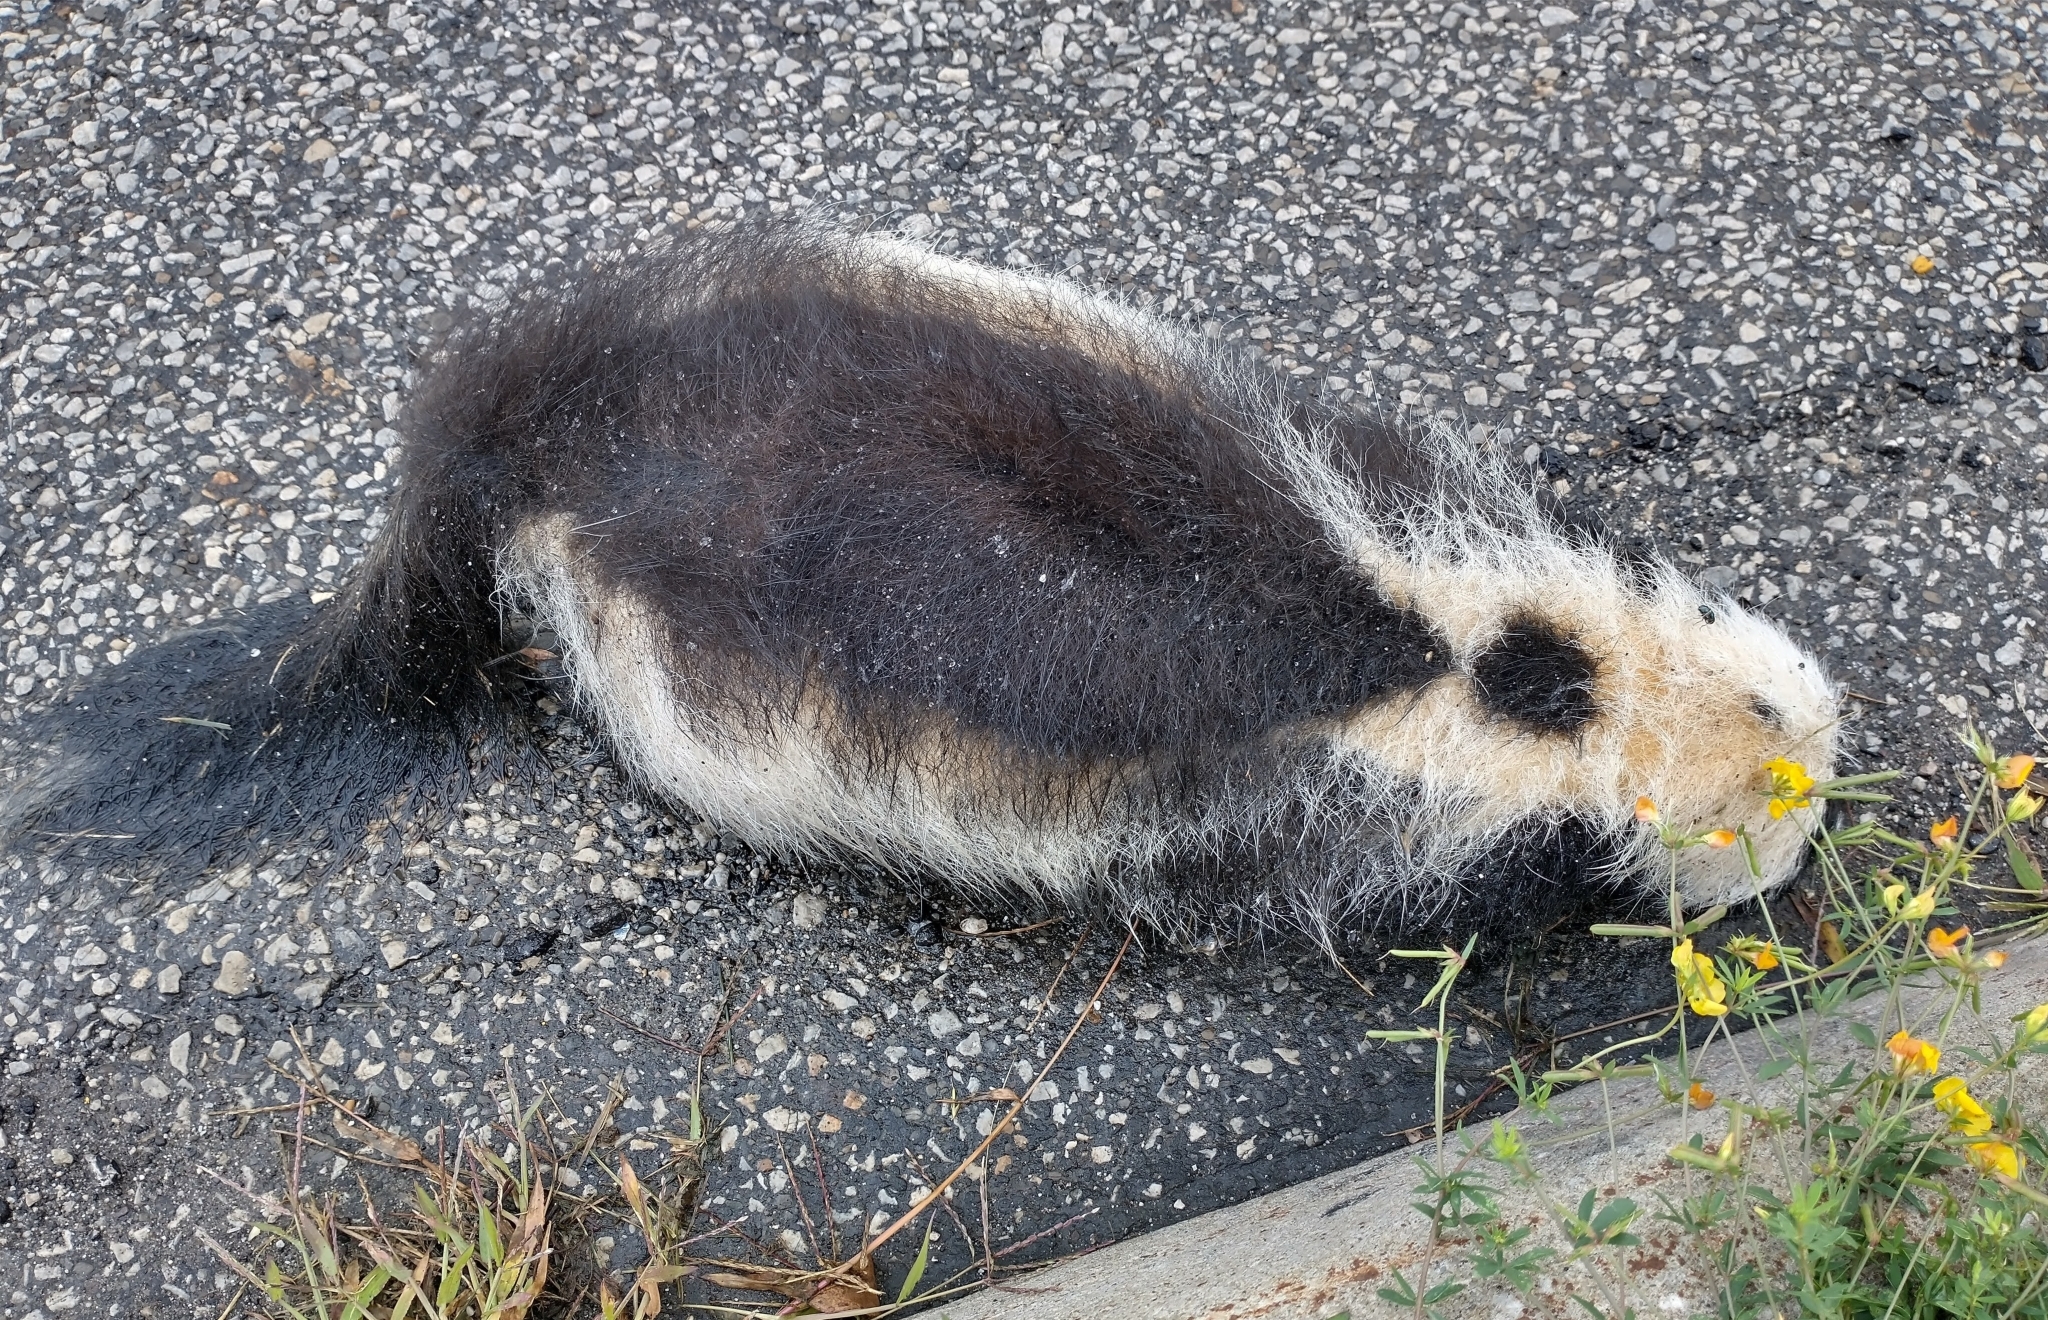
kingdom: Animalia
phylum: Chordata
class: Mammalia
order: Carnivora
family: Mephitidae
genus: Mephitis
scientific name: Mephitis mephitis
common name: Striped skunk
